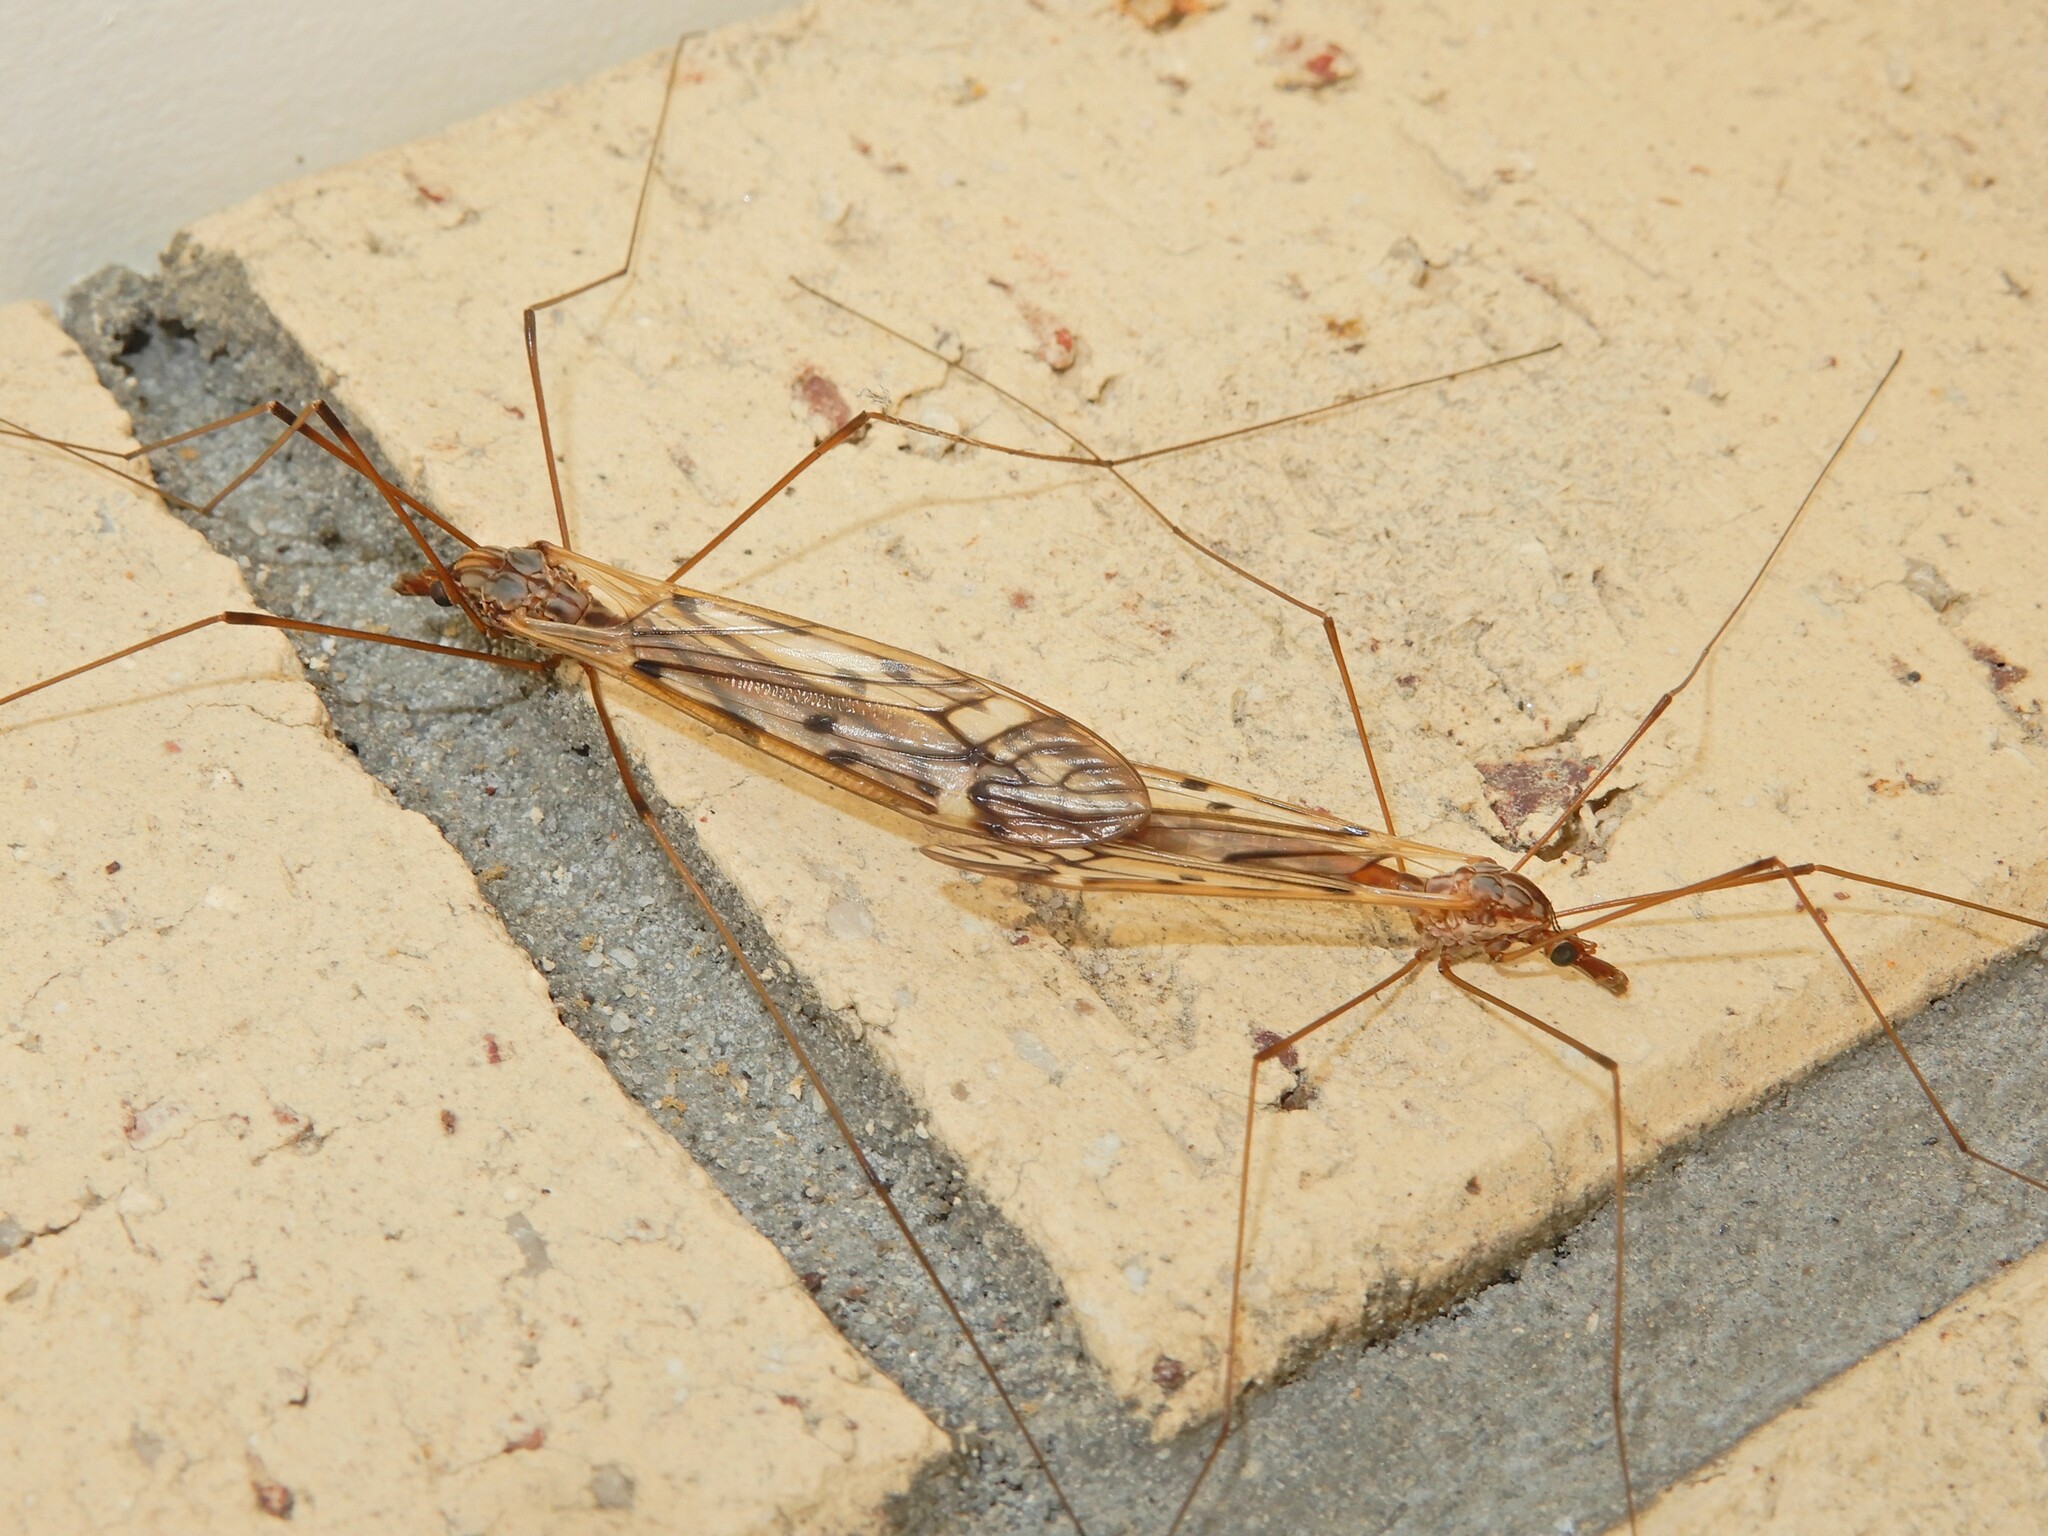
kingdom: Animalia
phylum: Arthropoda
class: Insecta
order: Diptera
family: Tipulidae
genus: Zelandotipula
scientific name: Zelandotipula novarae
